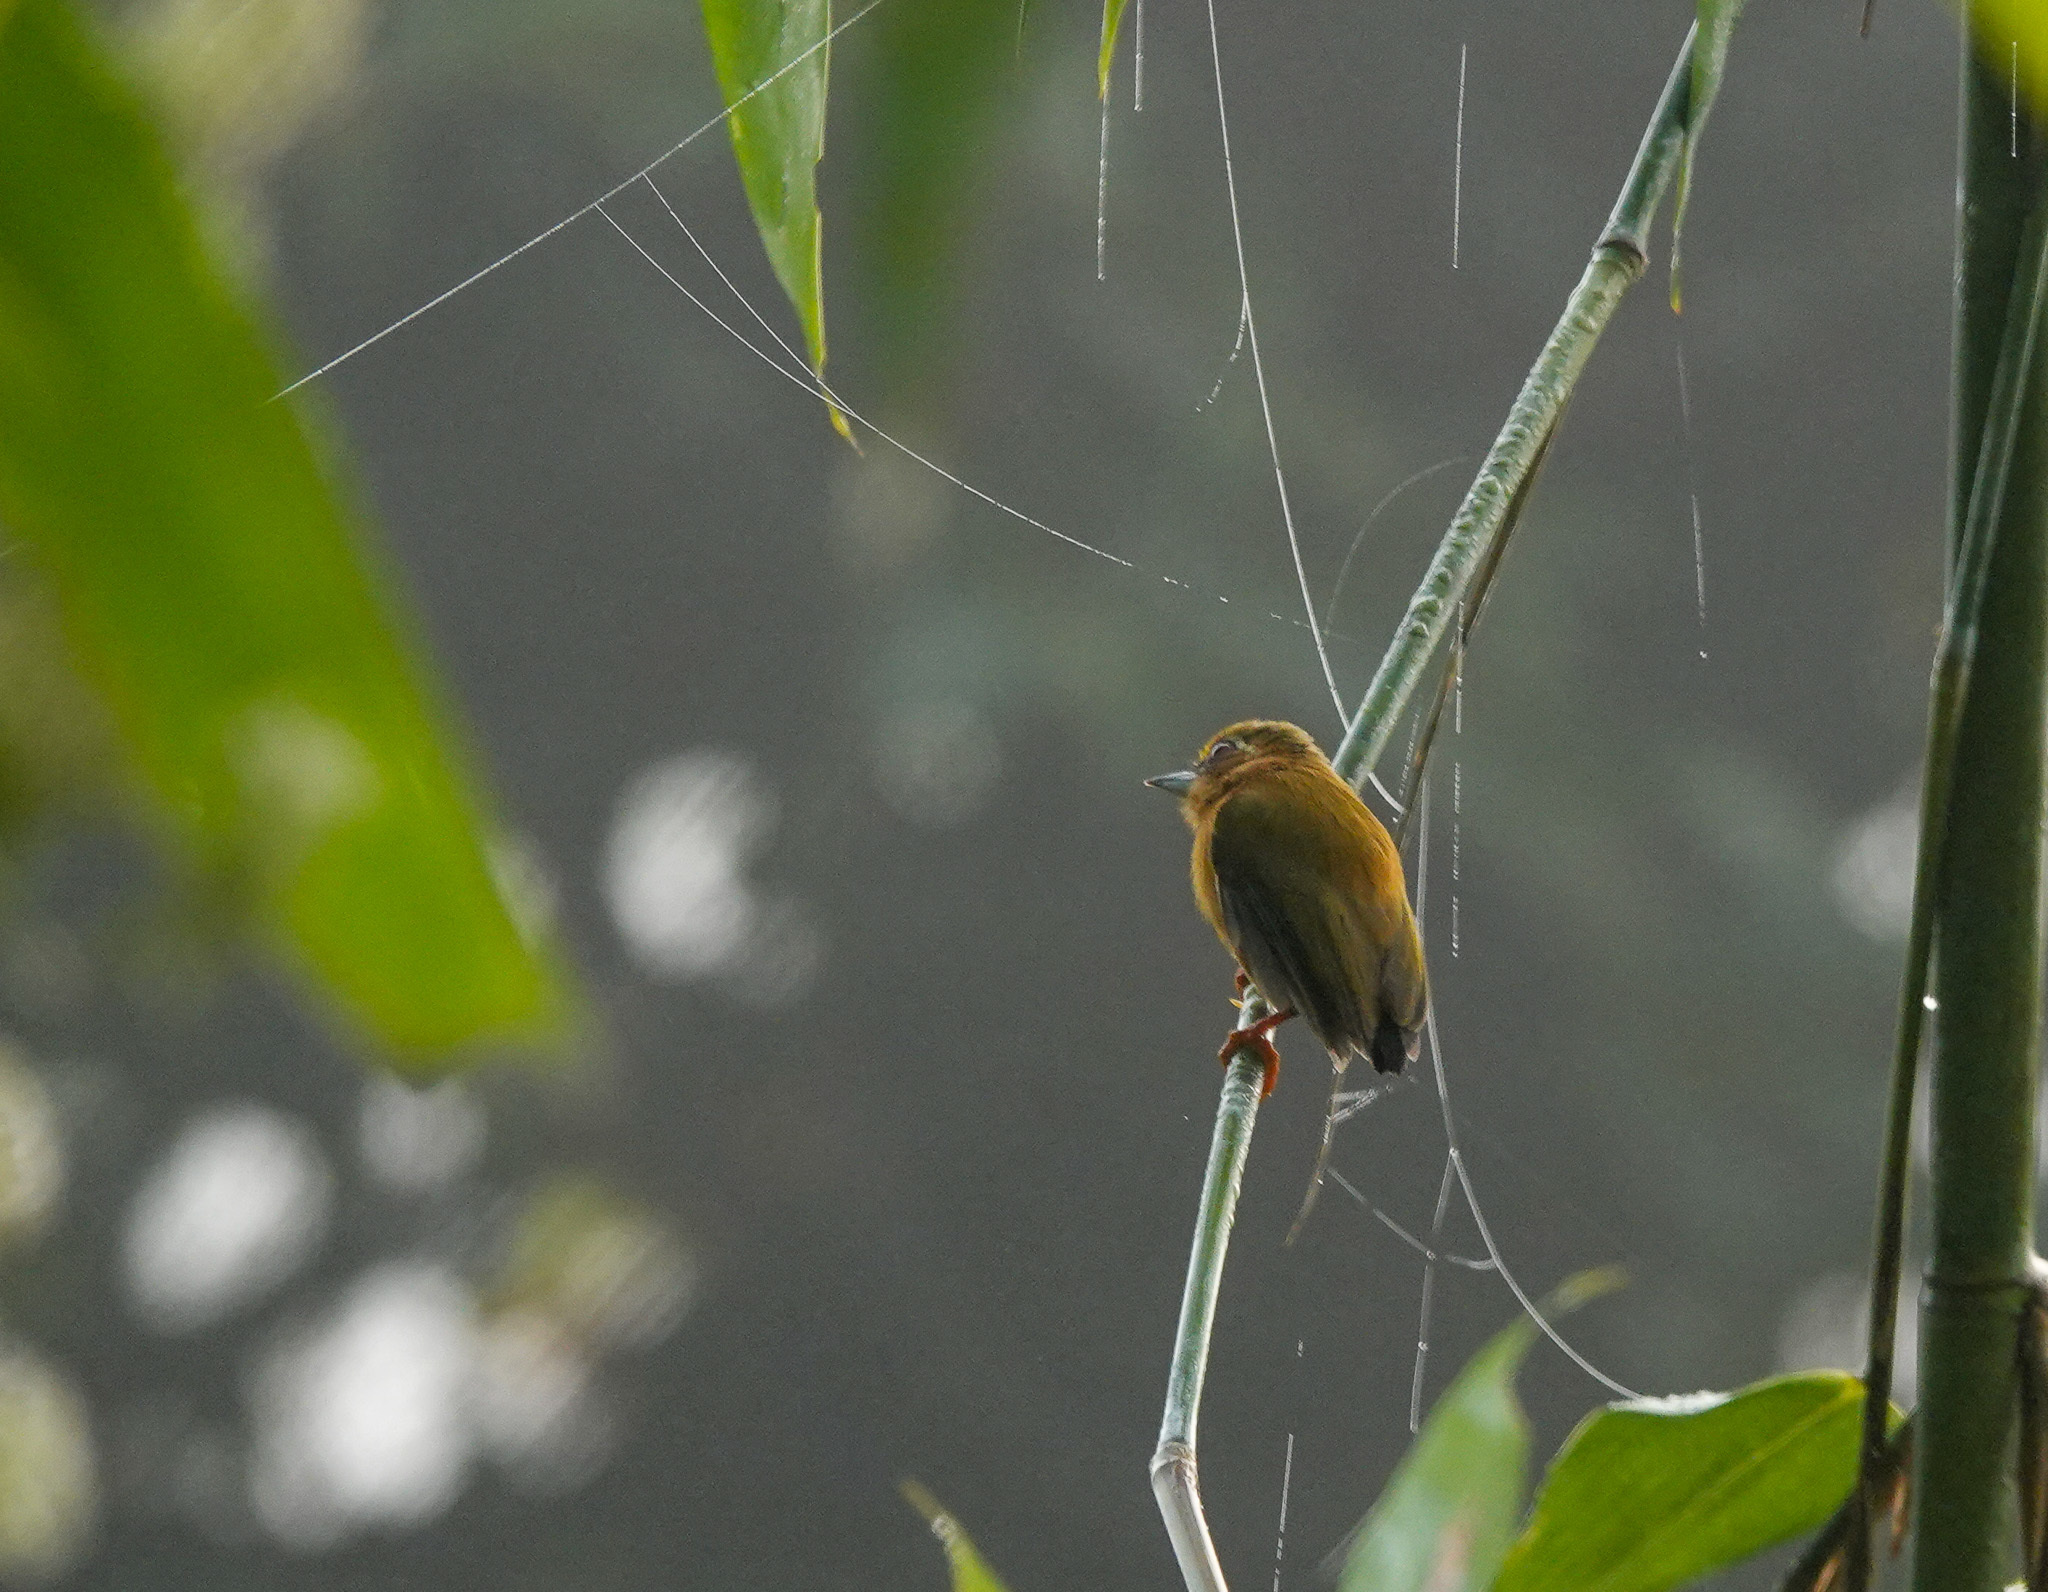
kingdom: Animalia
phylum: Chordata
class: Aves
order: Piciformes
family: Picidae
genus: Sasia
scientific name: Sasia ochracea
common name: White-browed piculet
